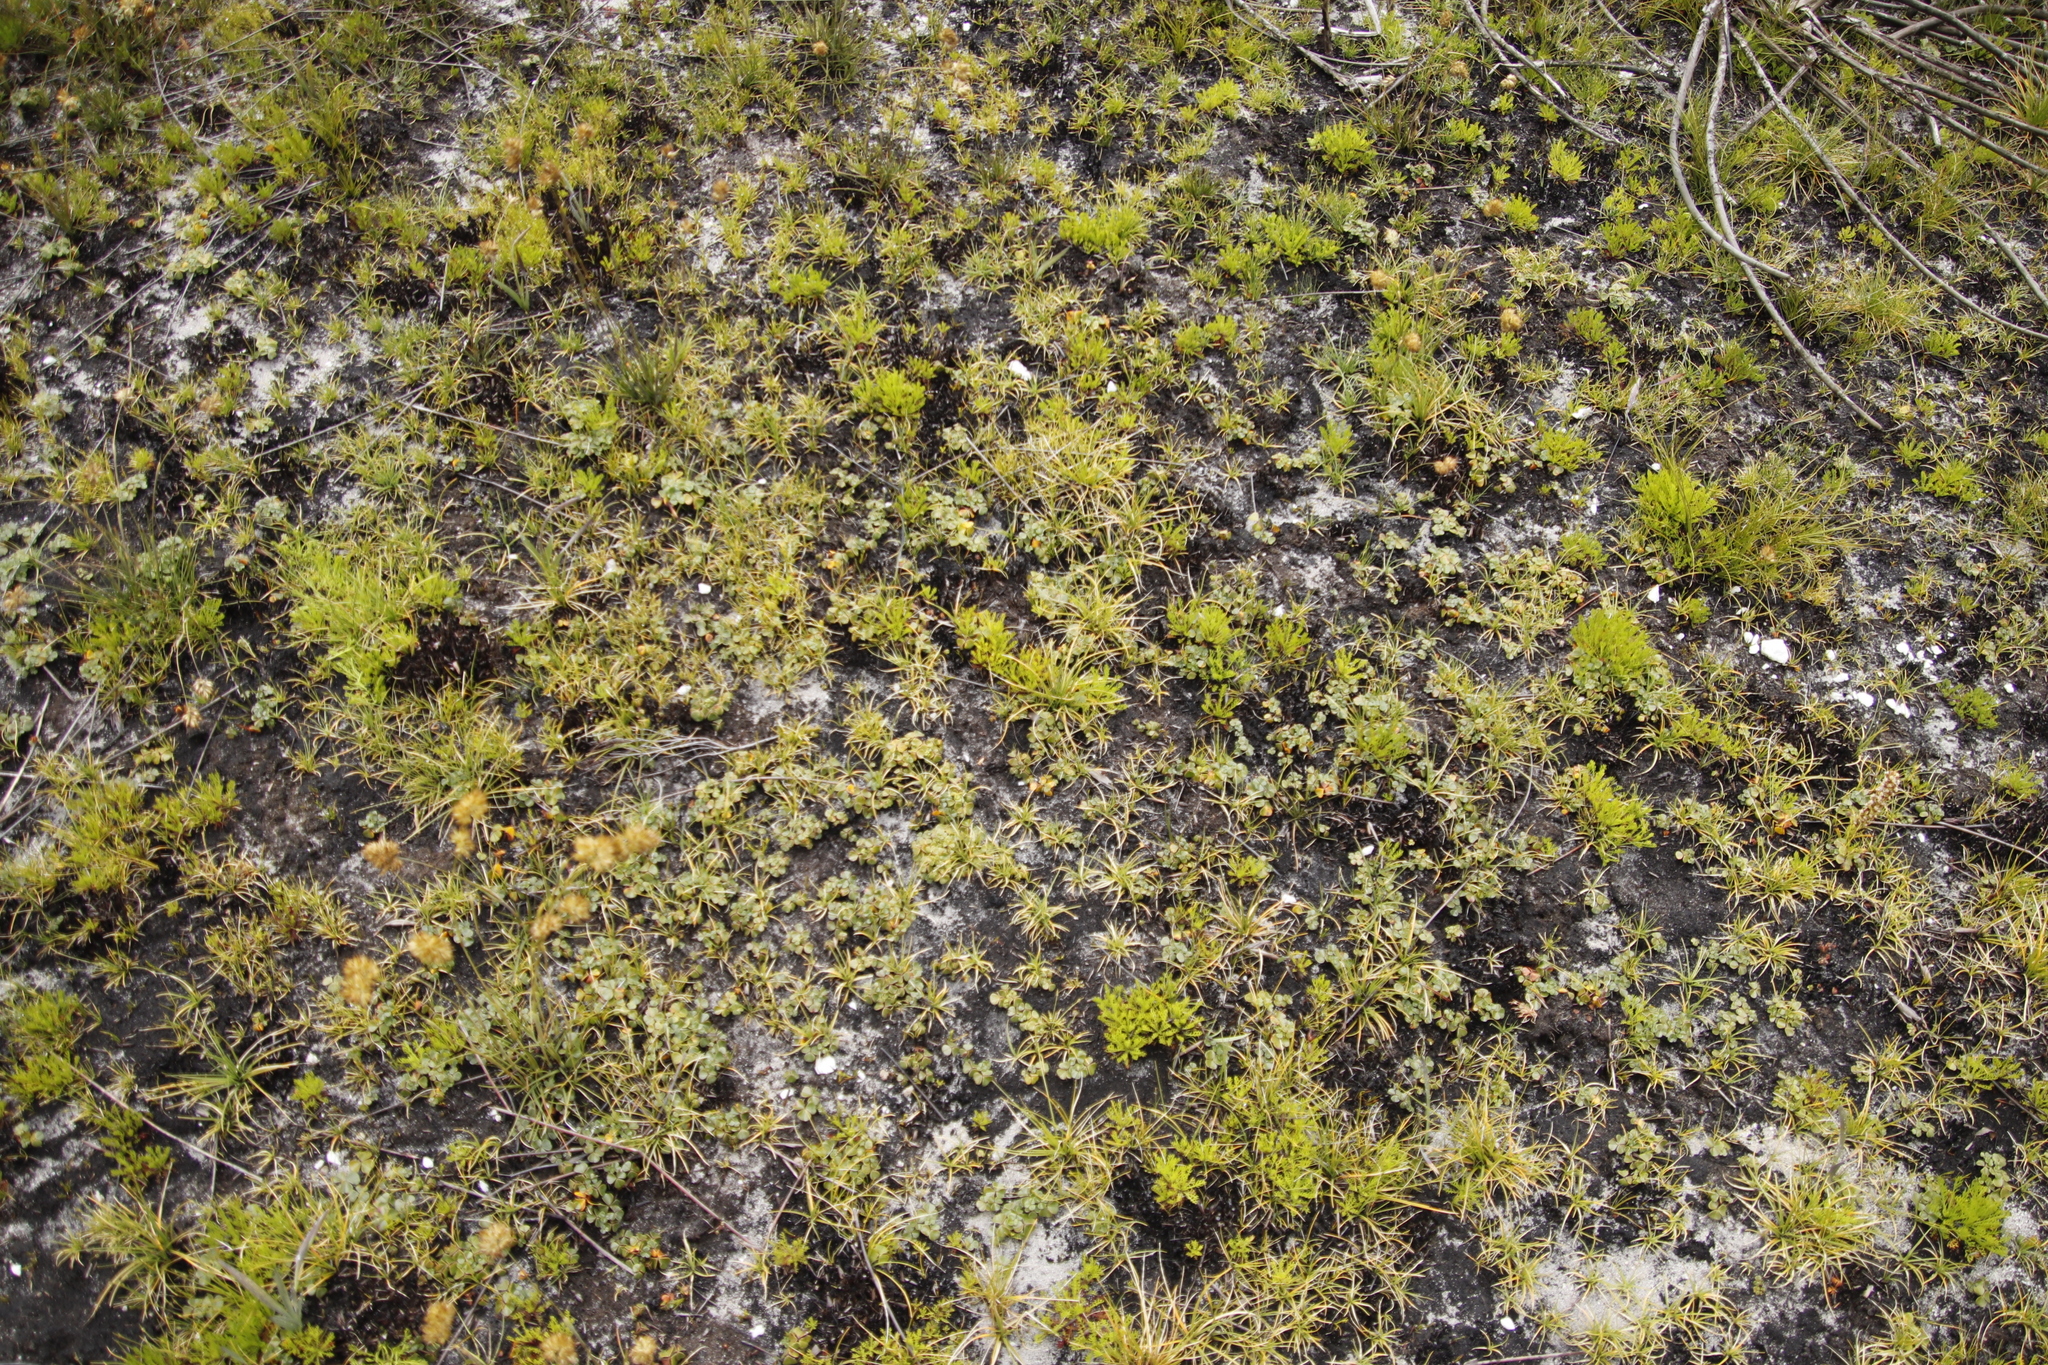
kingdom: Plantae
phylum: Tracheophyta
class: Magnoliopsida
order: Oxalidales
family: Oxalidaceae
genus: Oxalis
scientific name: Oxalis truncatula
